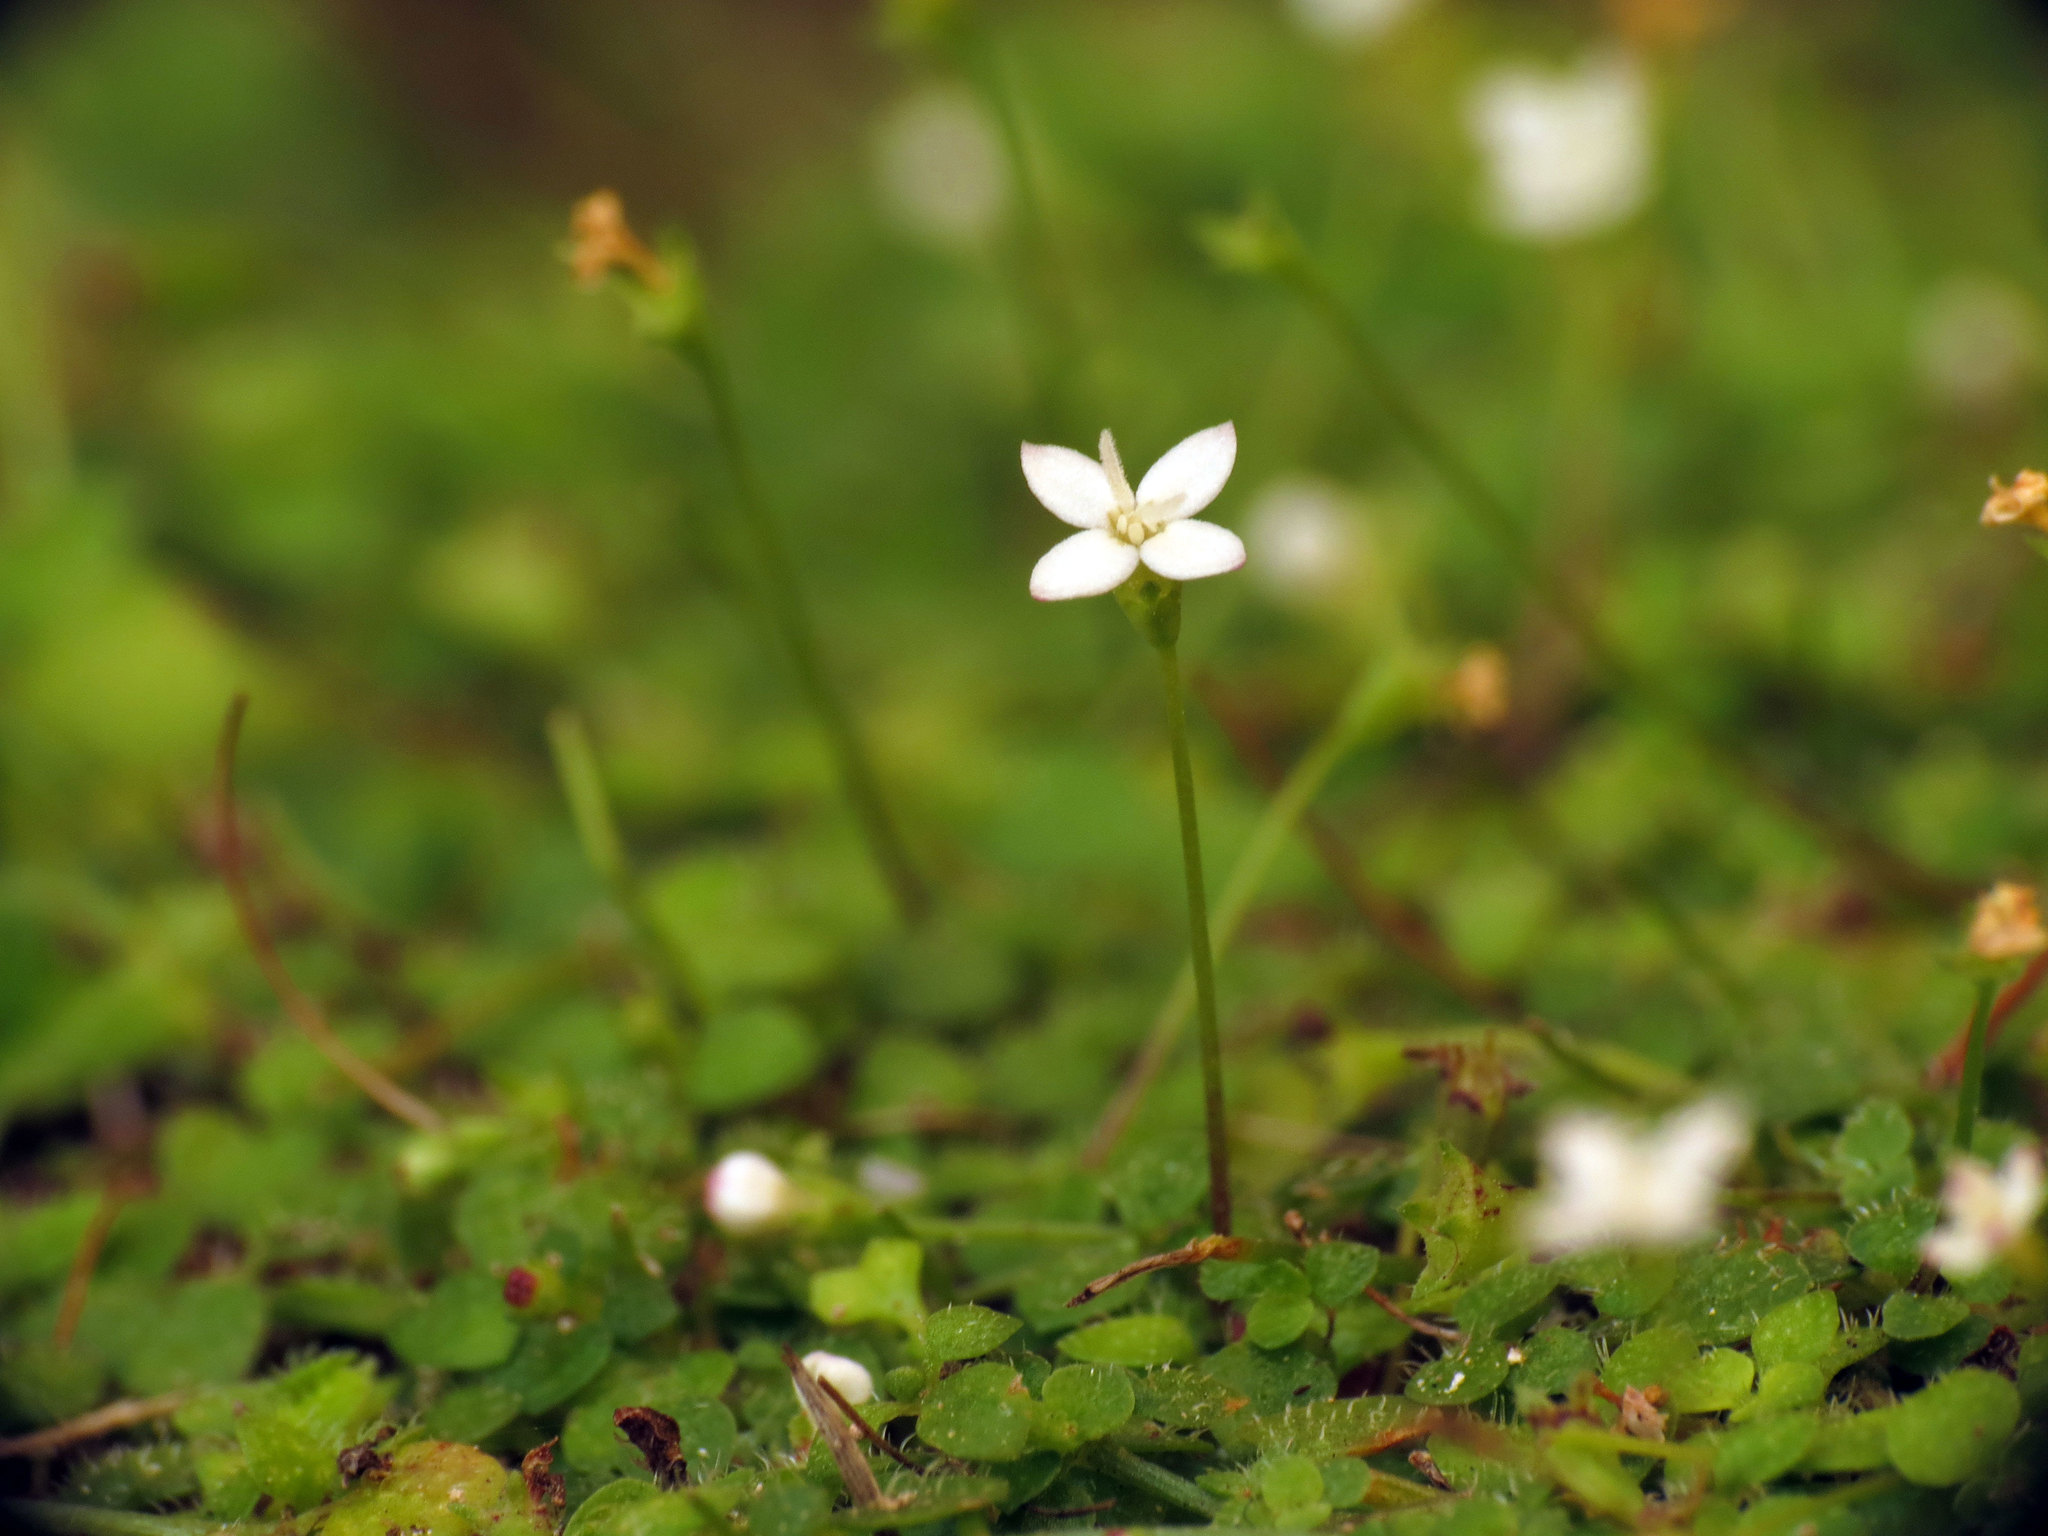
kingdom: Plantae
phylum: Tracheophyta
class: Magnoliopsida
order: Gentianales
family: Rubiaceae
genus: Oldenlandiopsis
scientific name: Oldenlandiopsis callitrichoides
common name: Creeping-bluet
